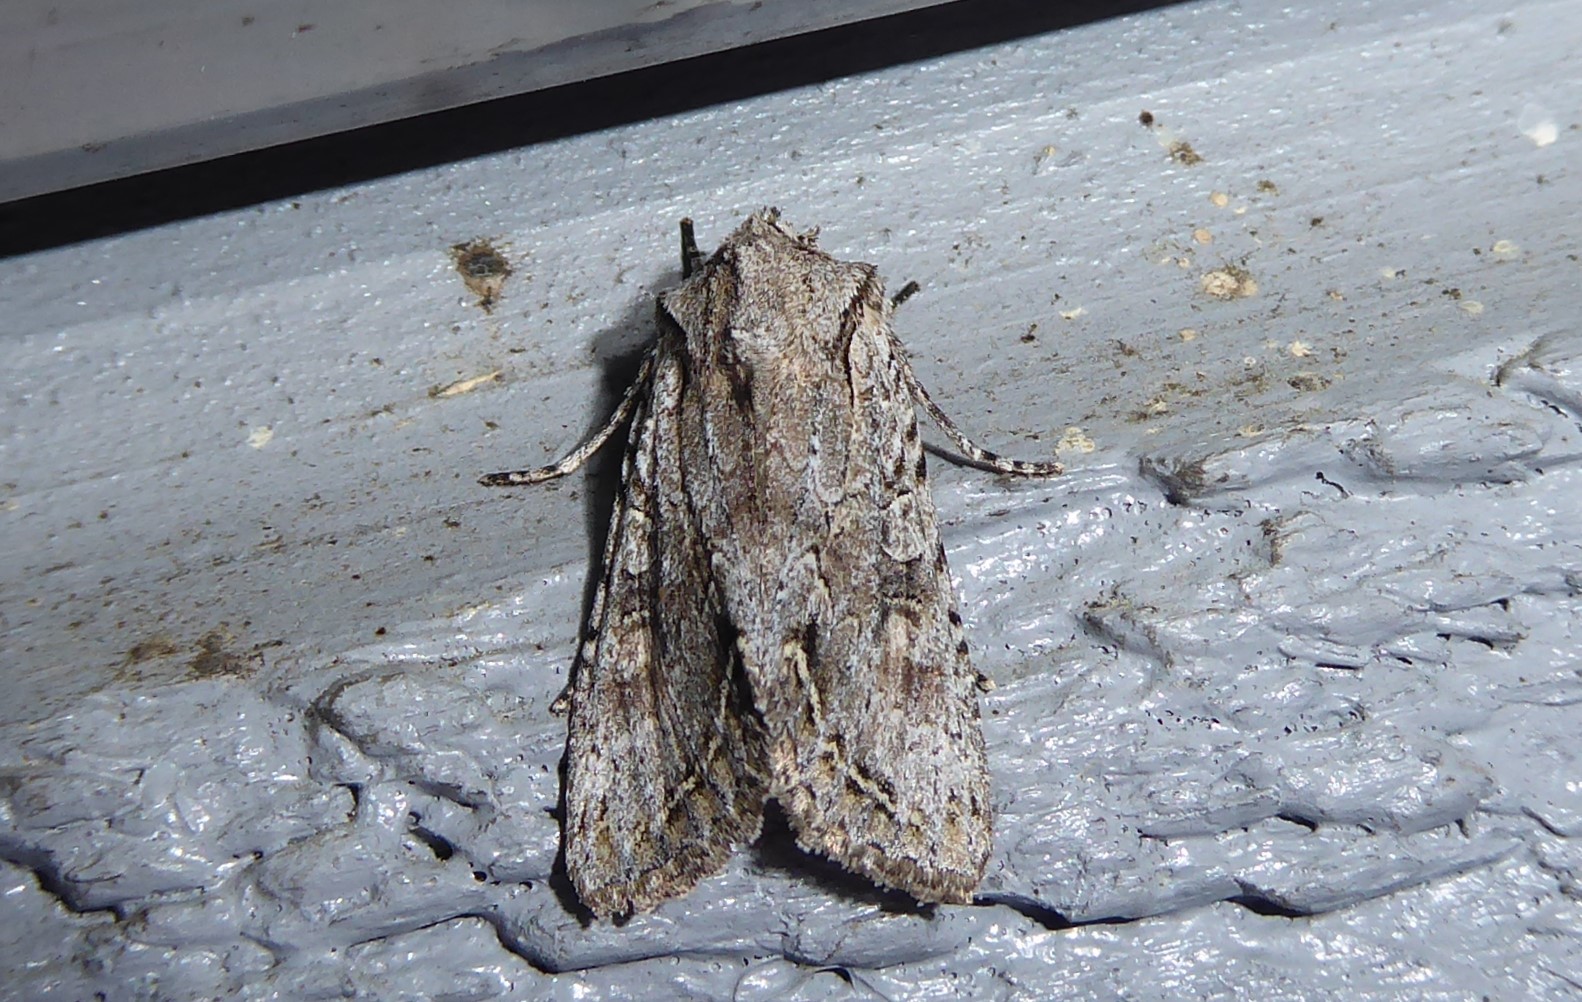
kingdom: Animalia
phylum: Arthropoda
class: Insecta
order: Lepidoptera
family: Noctuidae
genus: Ichneutica
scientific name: Ichneutica mutans
